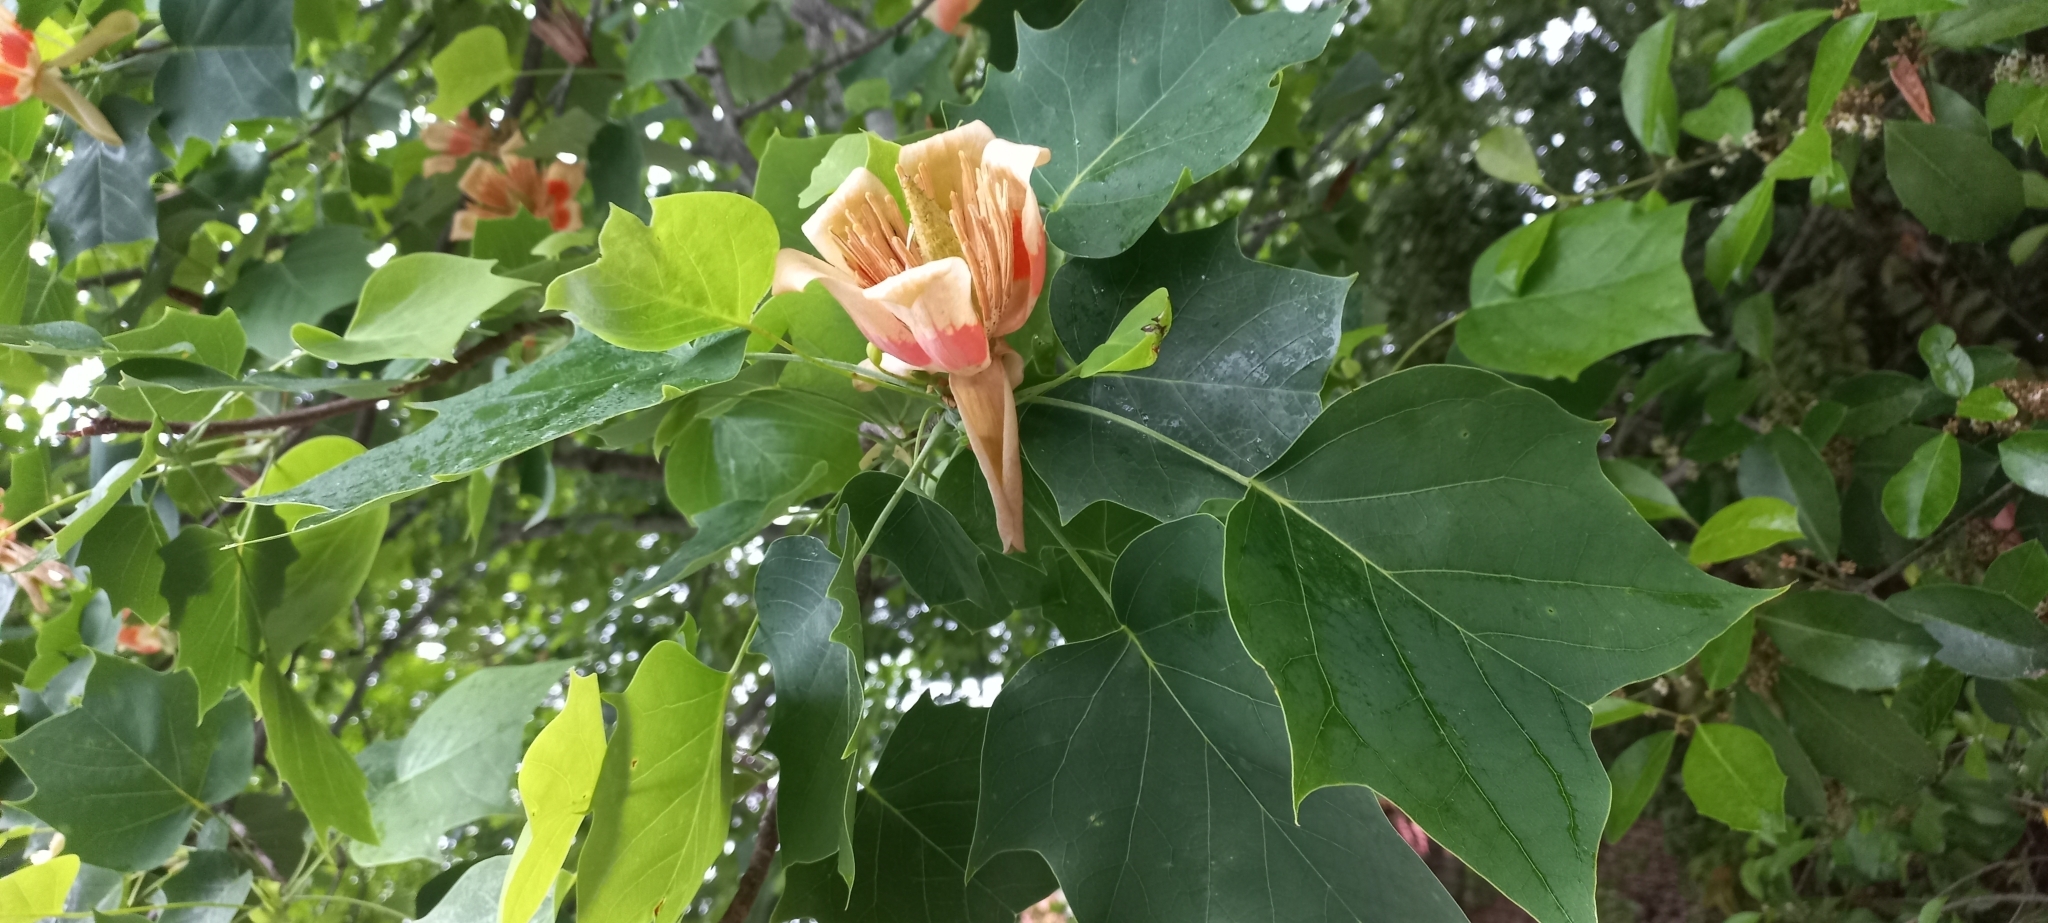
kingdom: Plantae
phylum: Tracheophyta
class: Magnoliopsida
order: Magnoliales
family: Magnoliaceae
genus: Liriodendron
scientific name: Liriodendron tulipifera
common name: Tulip tree
